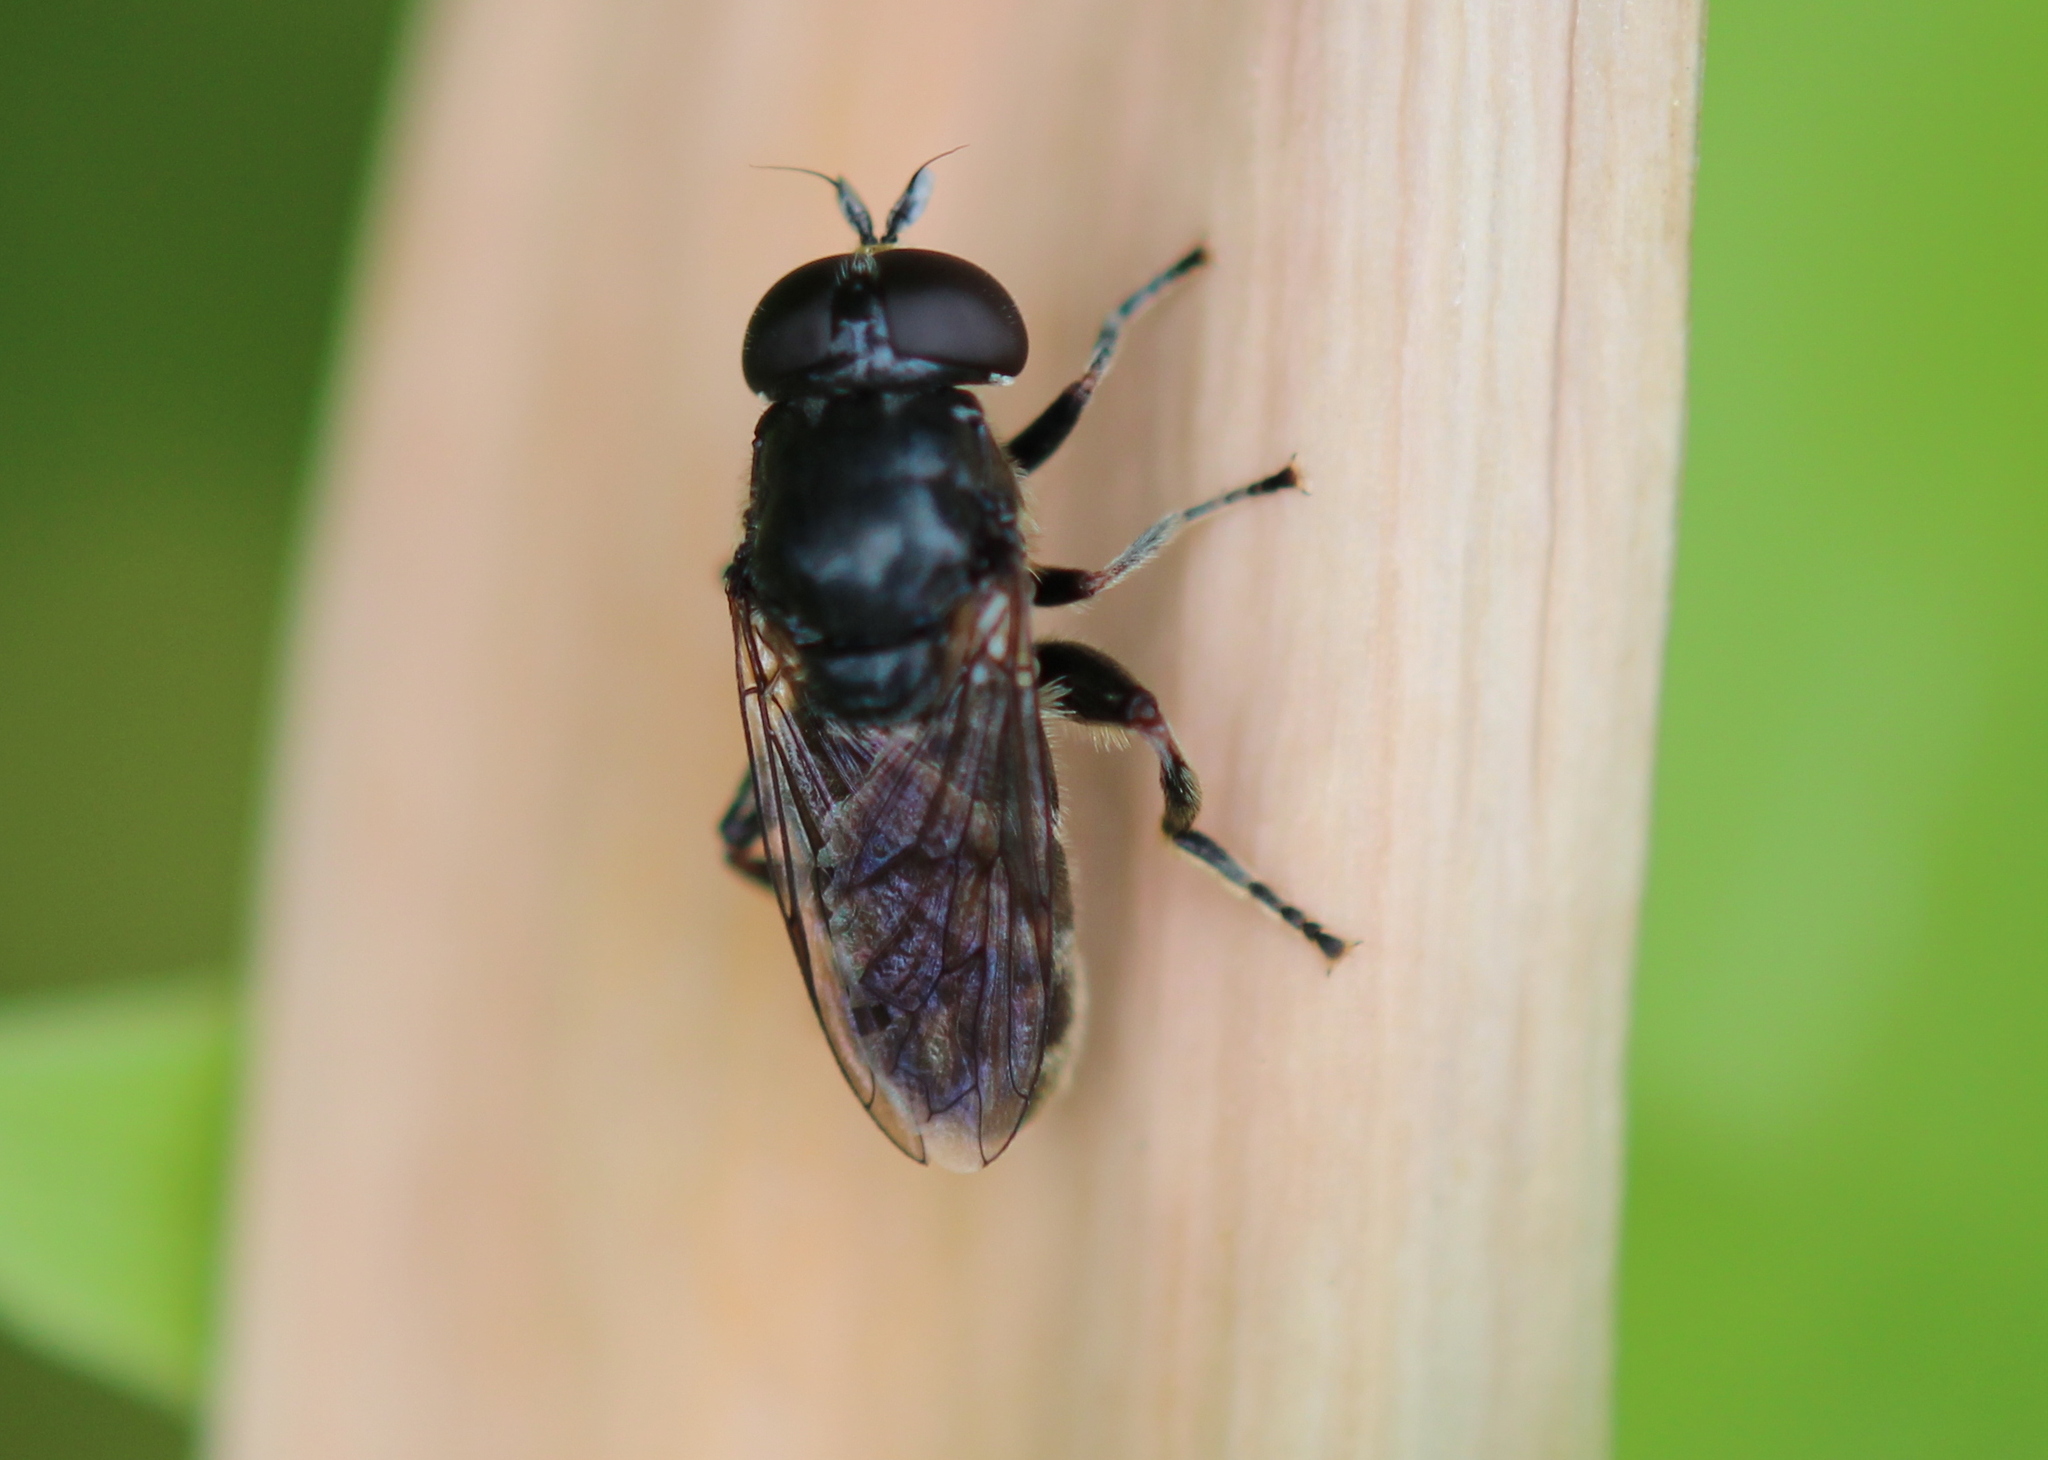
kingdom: Animalia
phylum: Arthropoda
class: Insecta
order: Diptera
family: Syrphidae
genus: Eumerus
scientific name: Eumerus
